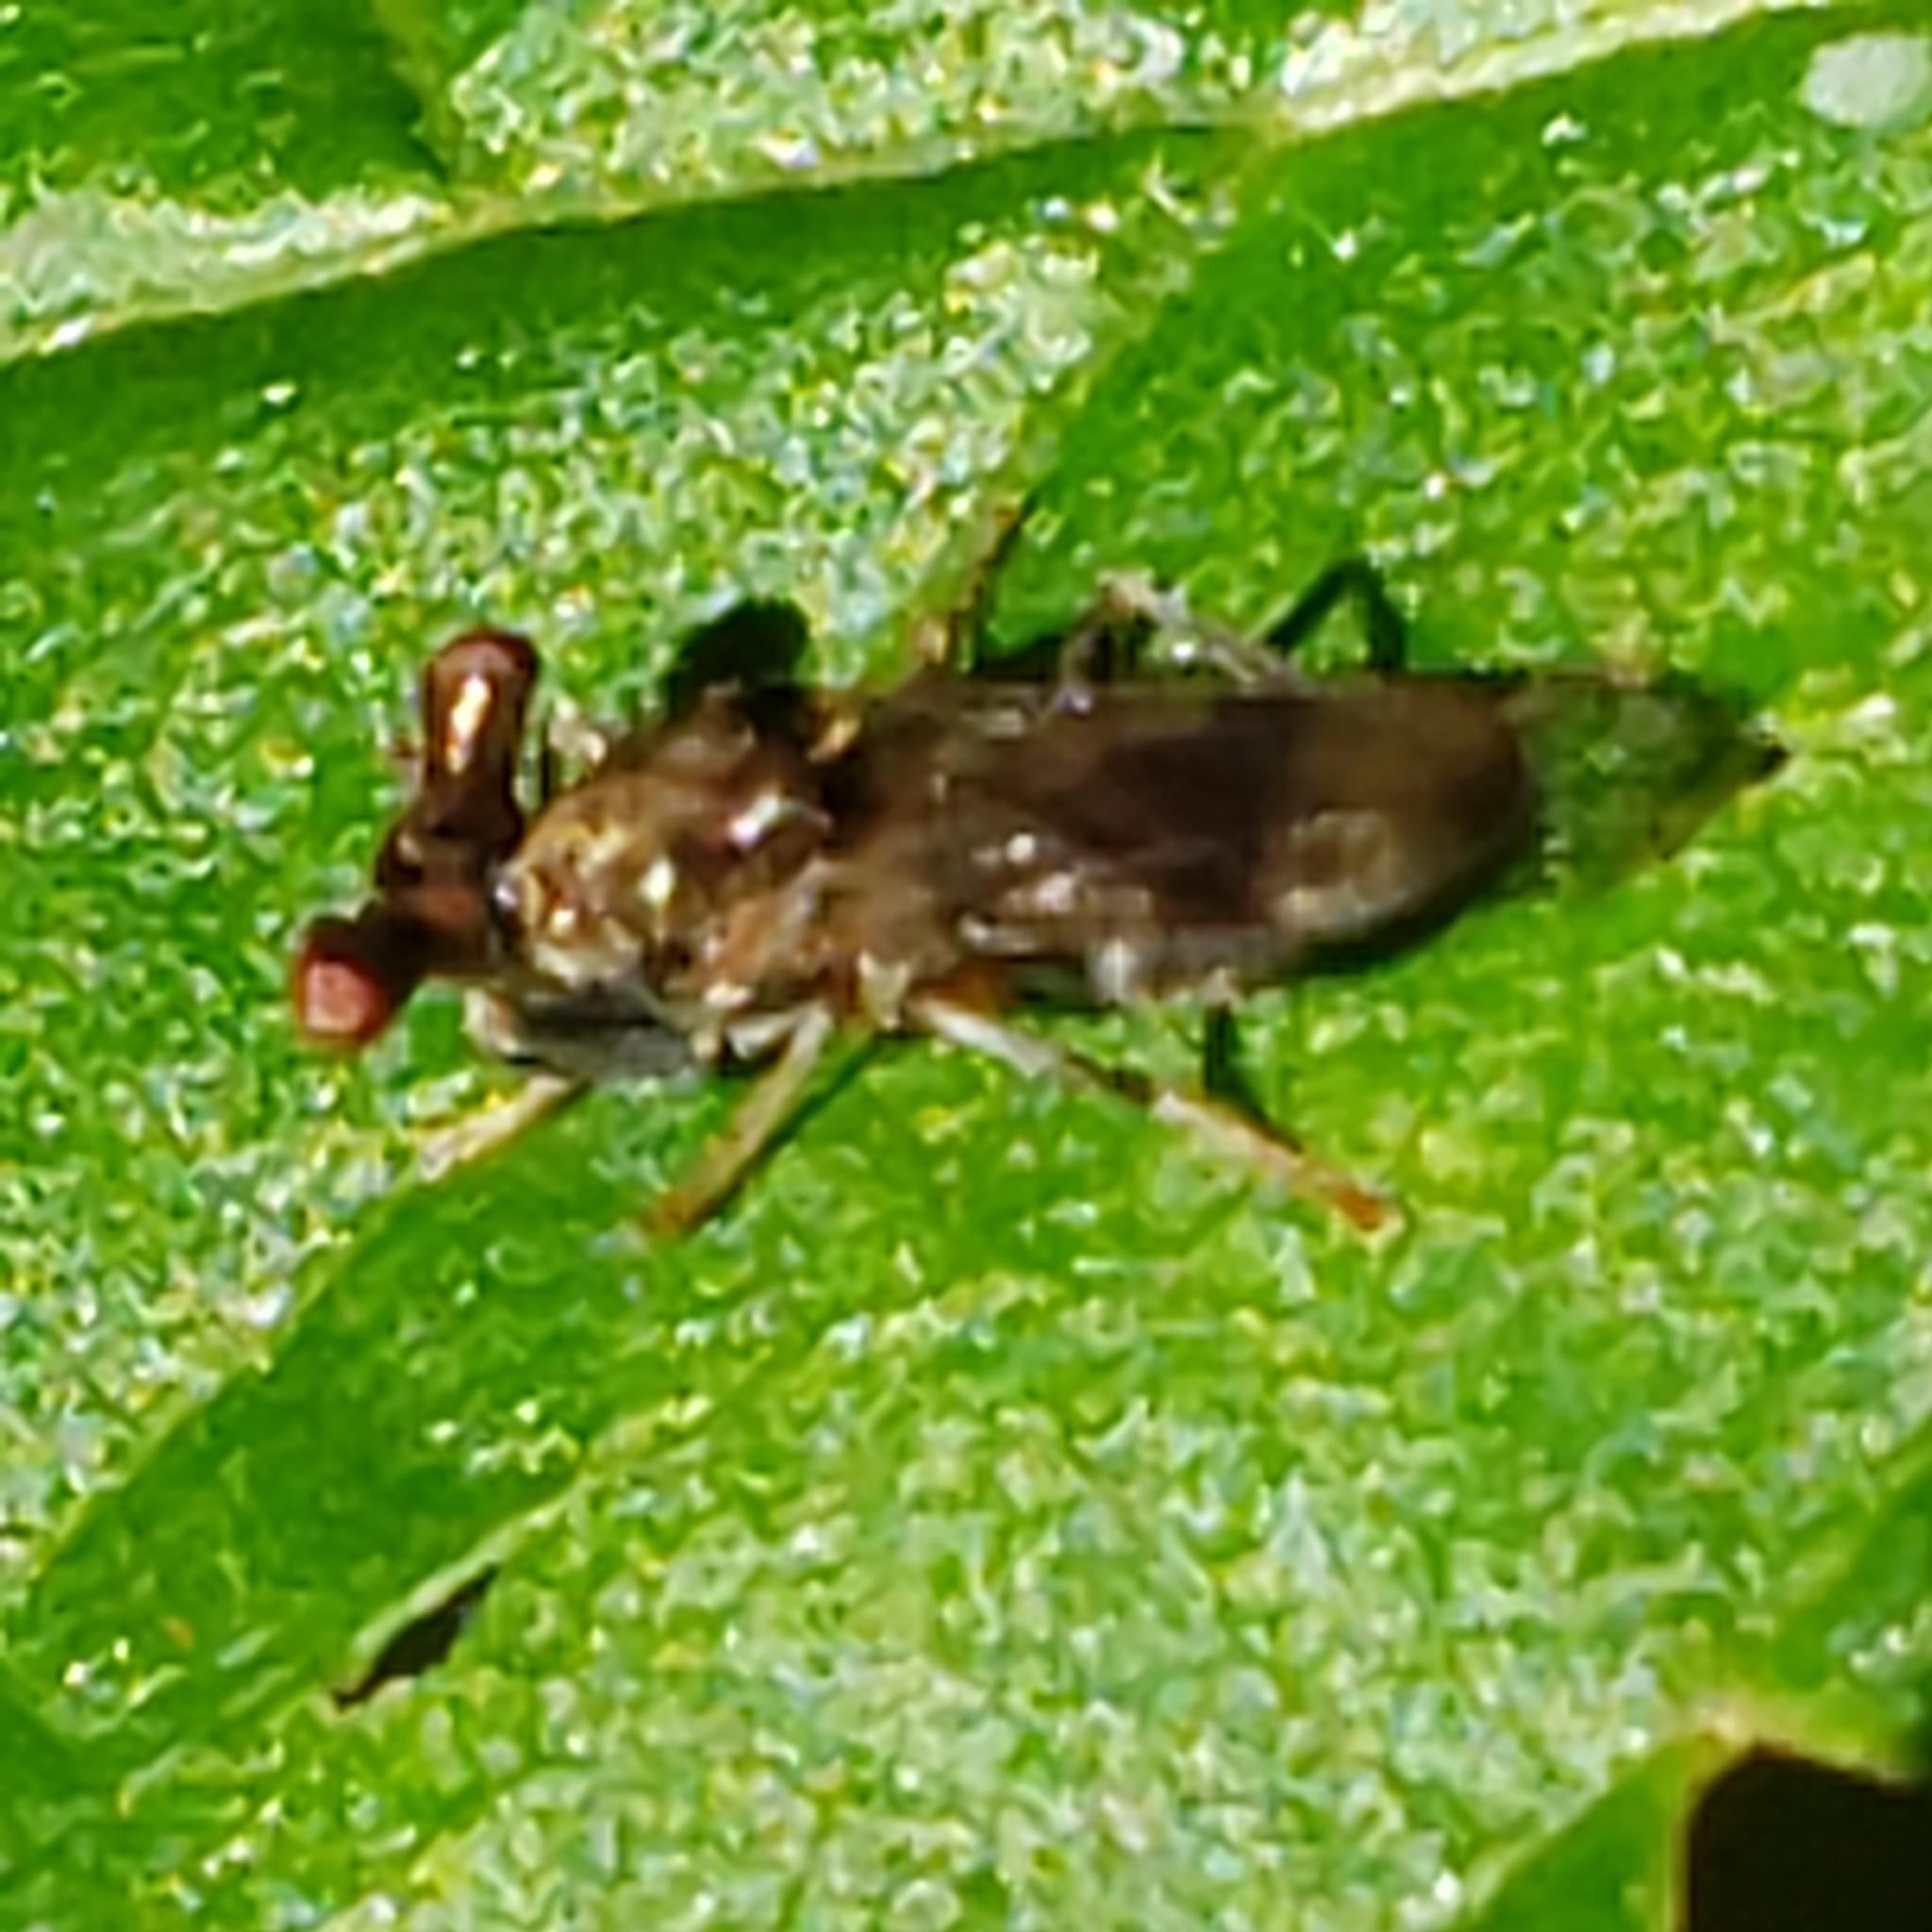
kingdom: Animalia
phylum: Arthropoda
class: Insecta
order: Diptera
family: Diopsidae
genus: Sphyracephala
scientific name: Sphyracephala brevicornis
